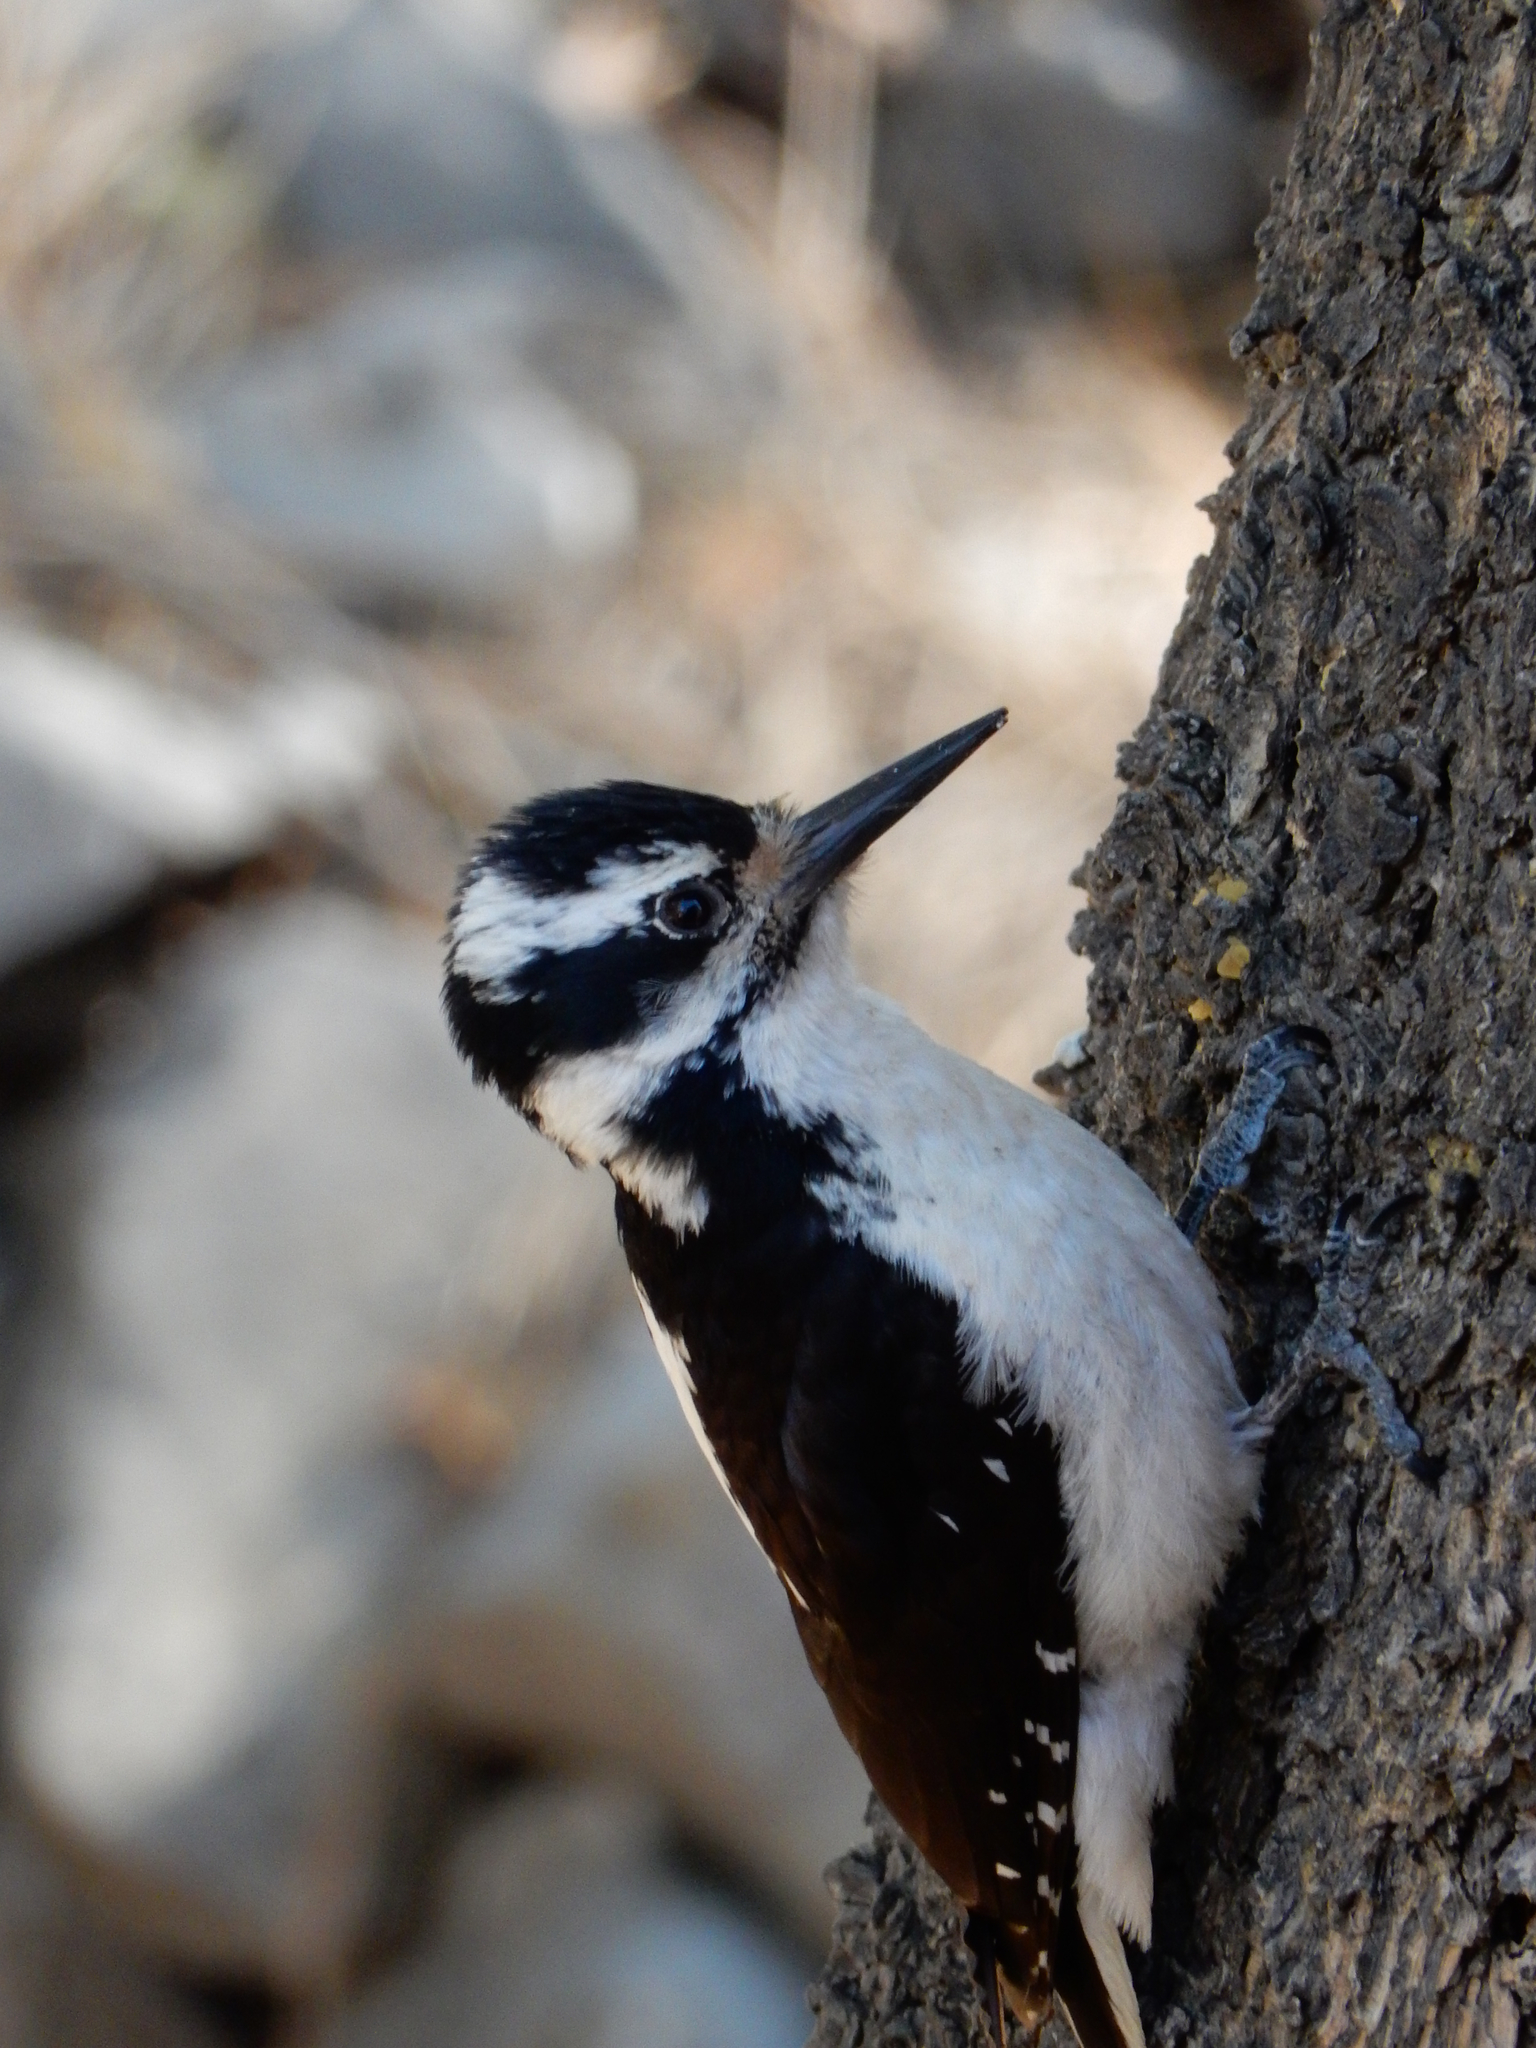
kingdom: Animalia
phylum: Chordata
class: Aves
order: Piciformes
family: Picidae
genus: Leuconotopicus
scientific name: Leuconotopicus villosus
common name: Hairy woodpecker
